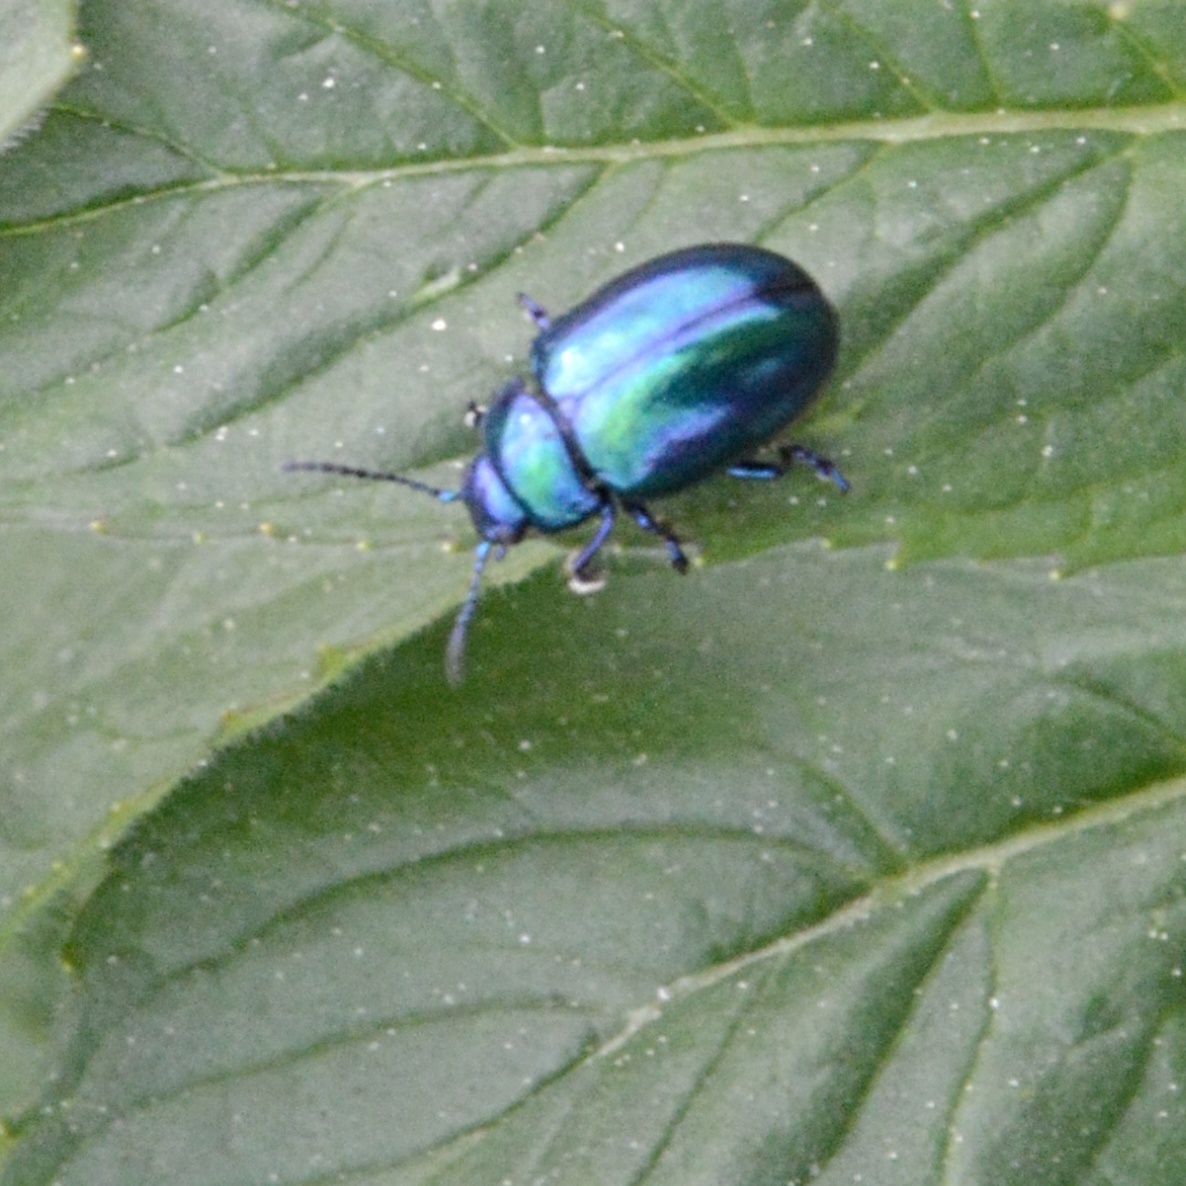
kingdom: Animalia
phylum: Arthropoda
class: Insecta
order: Coleoptera
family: Chrysomelidae
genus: Chrysolina
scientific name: Chrysolina coerulans
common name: Blue mint beetle
